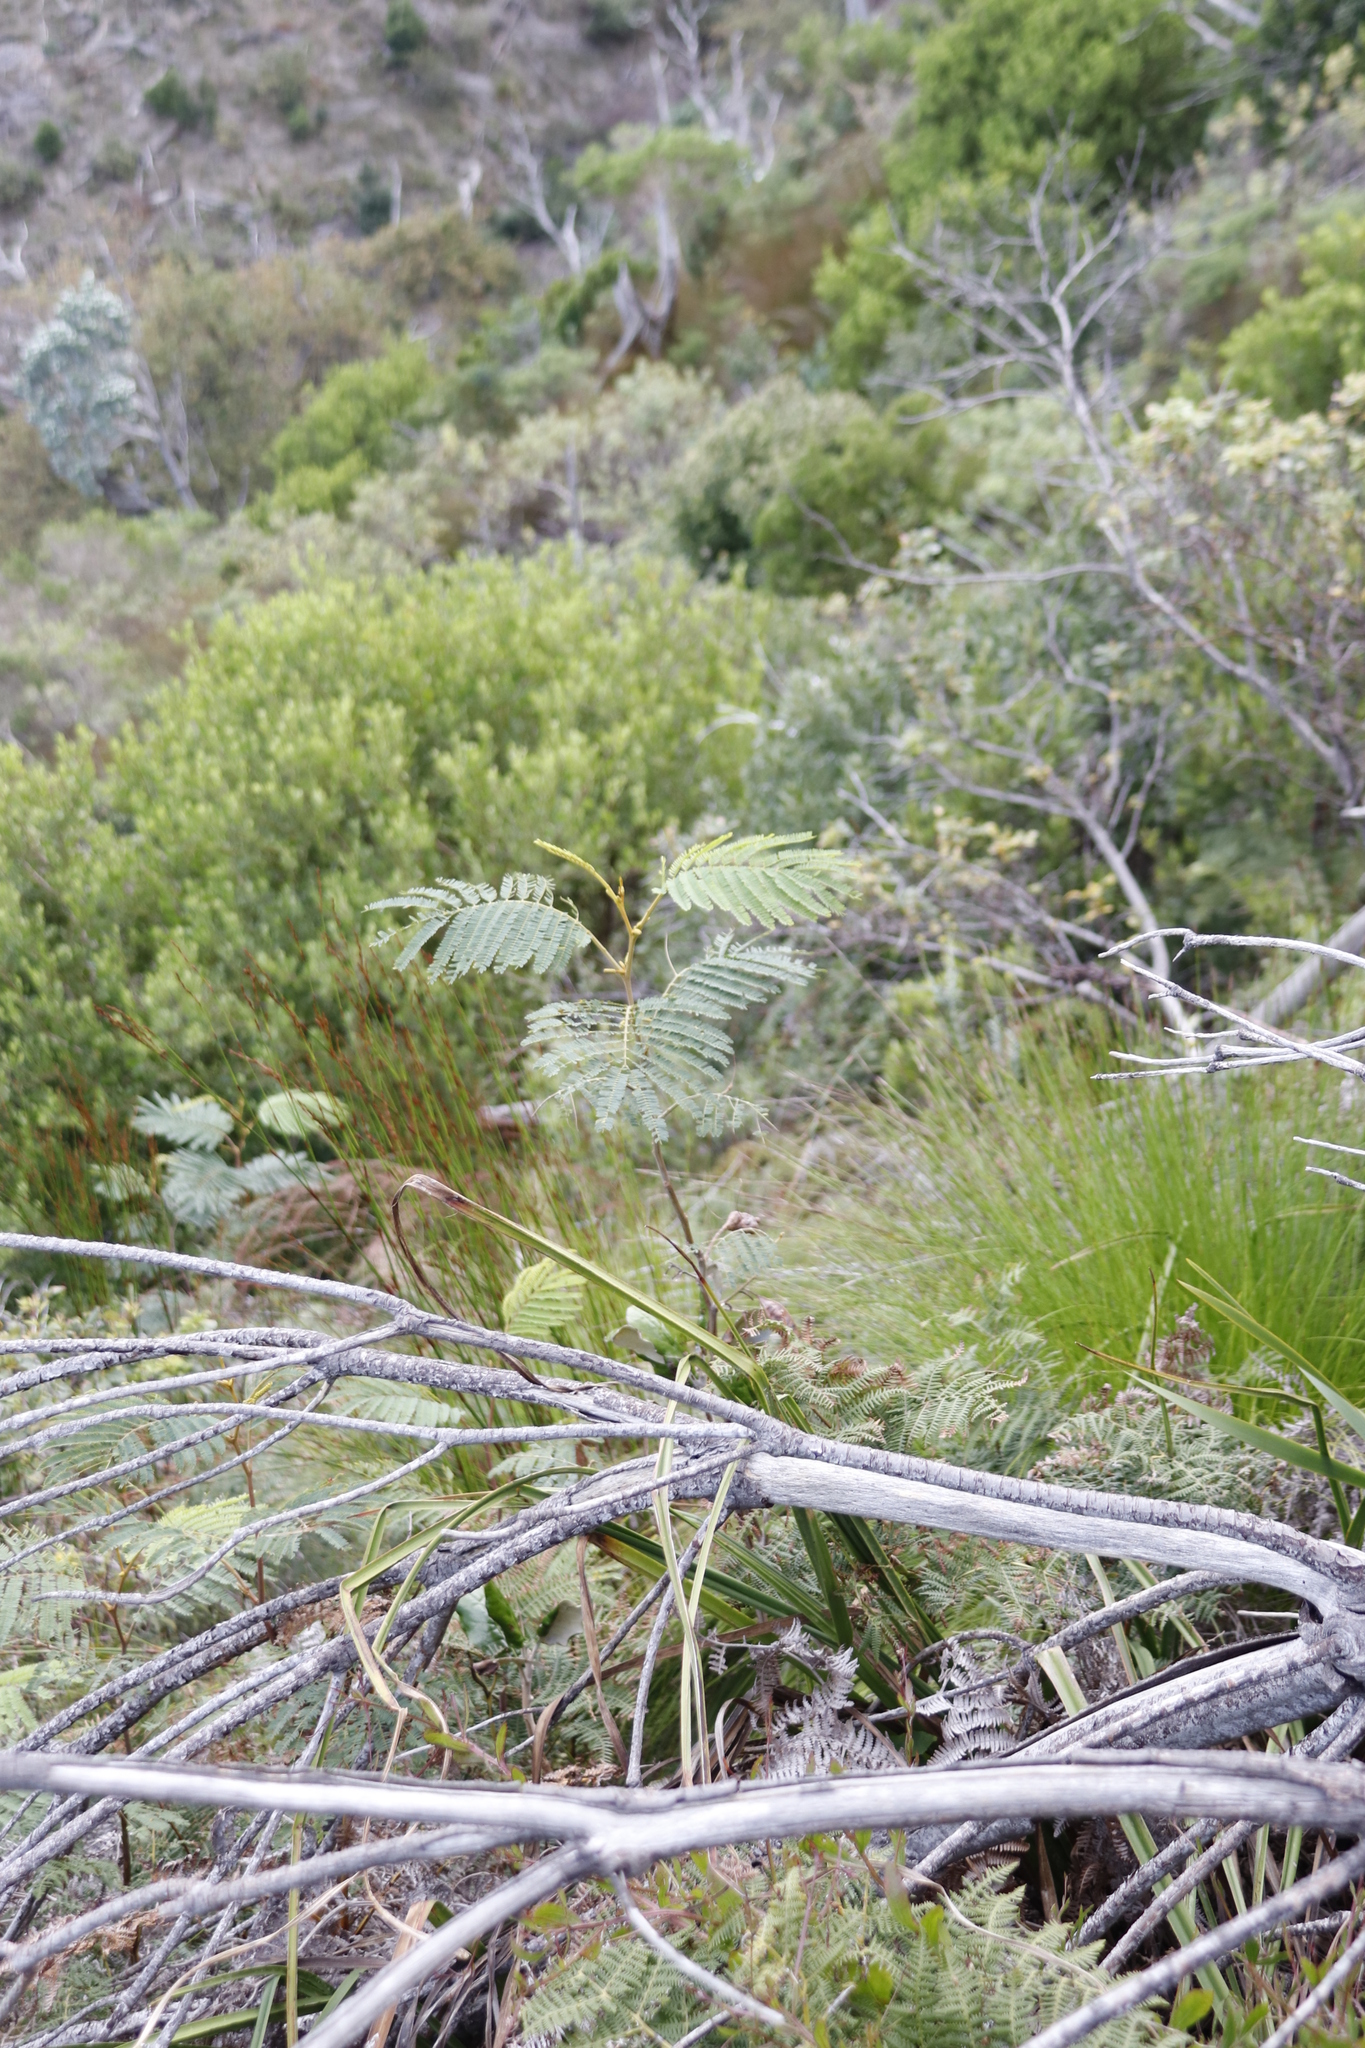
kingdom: Plantae
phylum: Tracheophyta
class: Magnoliopsida
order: Fabales
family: Fabaceae
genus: Paraserianthes
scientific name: Paraserianthes lophantha
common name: Plume albizia
